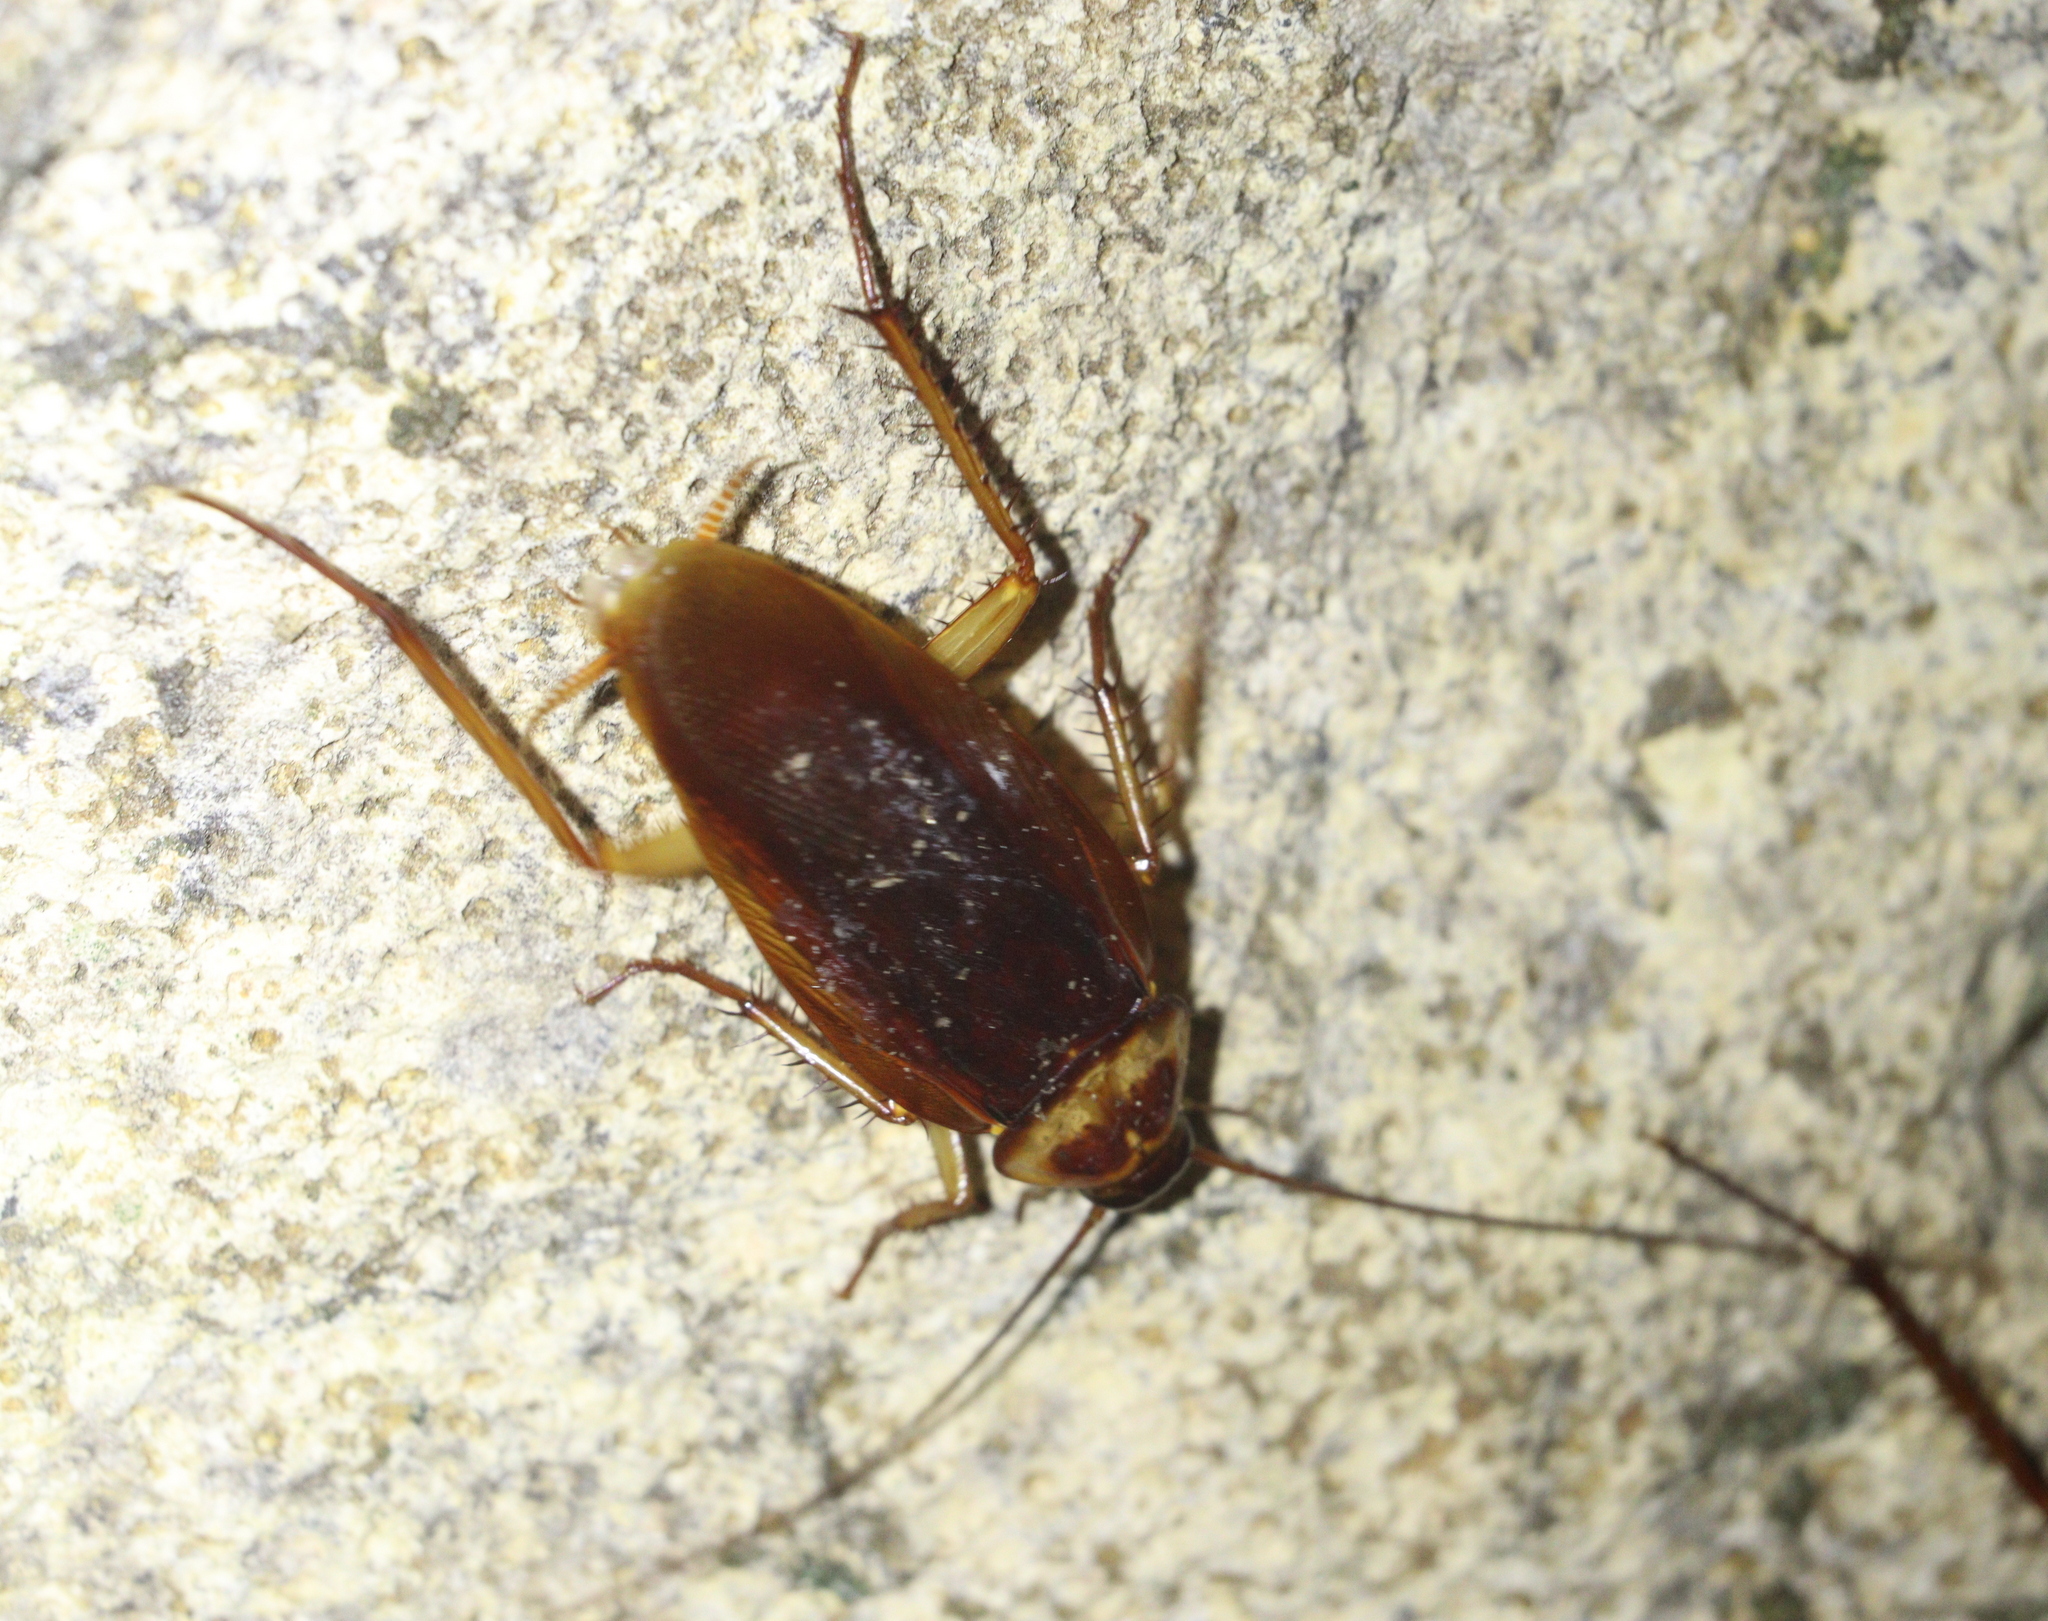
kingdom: Animalia
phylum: Arthropoda
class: Insecta
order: Blattodea
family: Blattidae
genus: Periplaneta
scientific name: Periplaneta americana
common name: American cockroach
